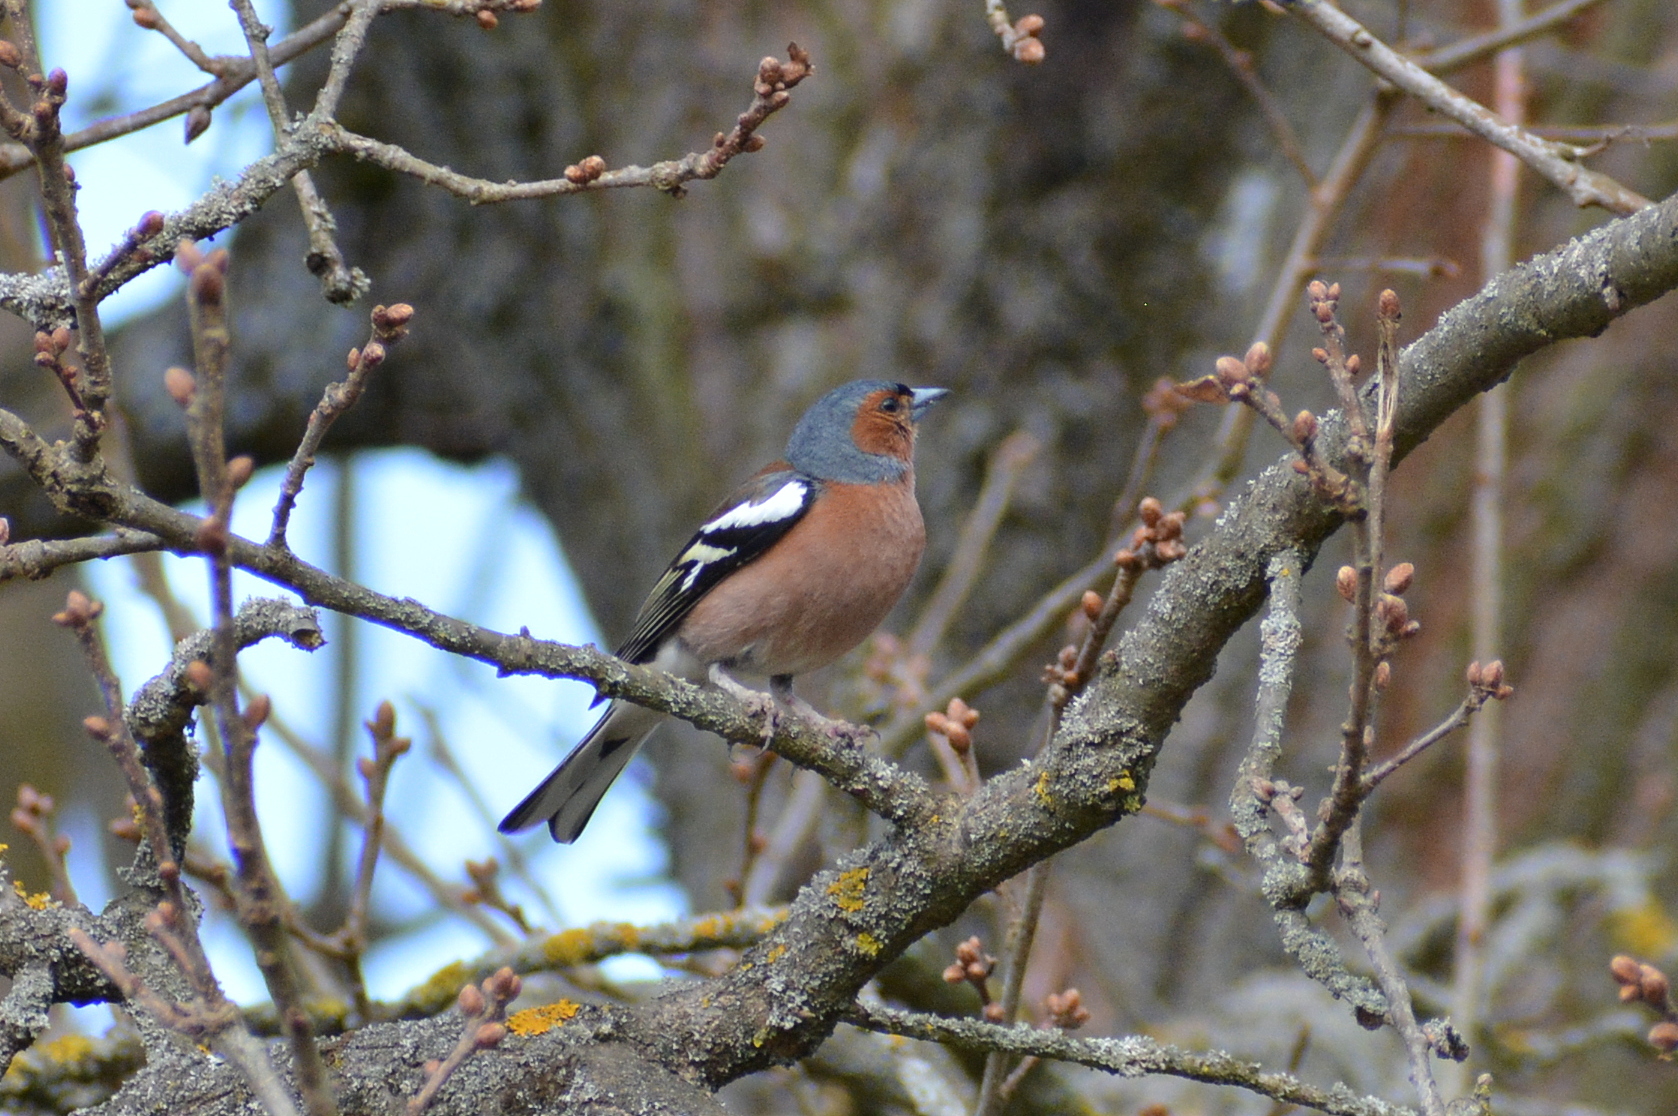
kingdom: Animalia
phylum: Chordata
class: Aves
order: Passeriformes
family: Fringillidae
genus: Fringilla
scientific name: Fringilla coelebs
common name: Common chaffinch
